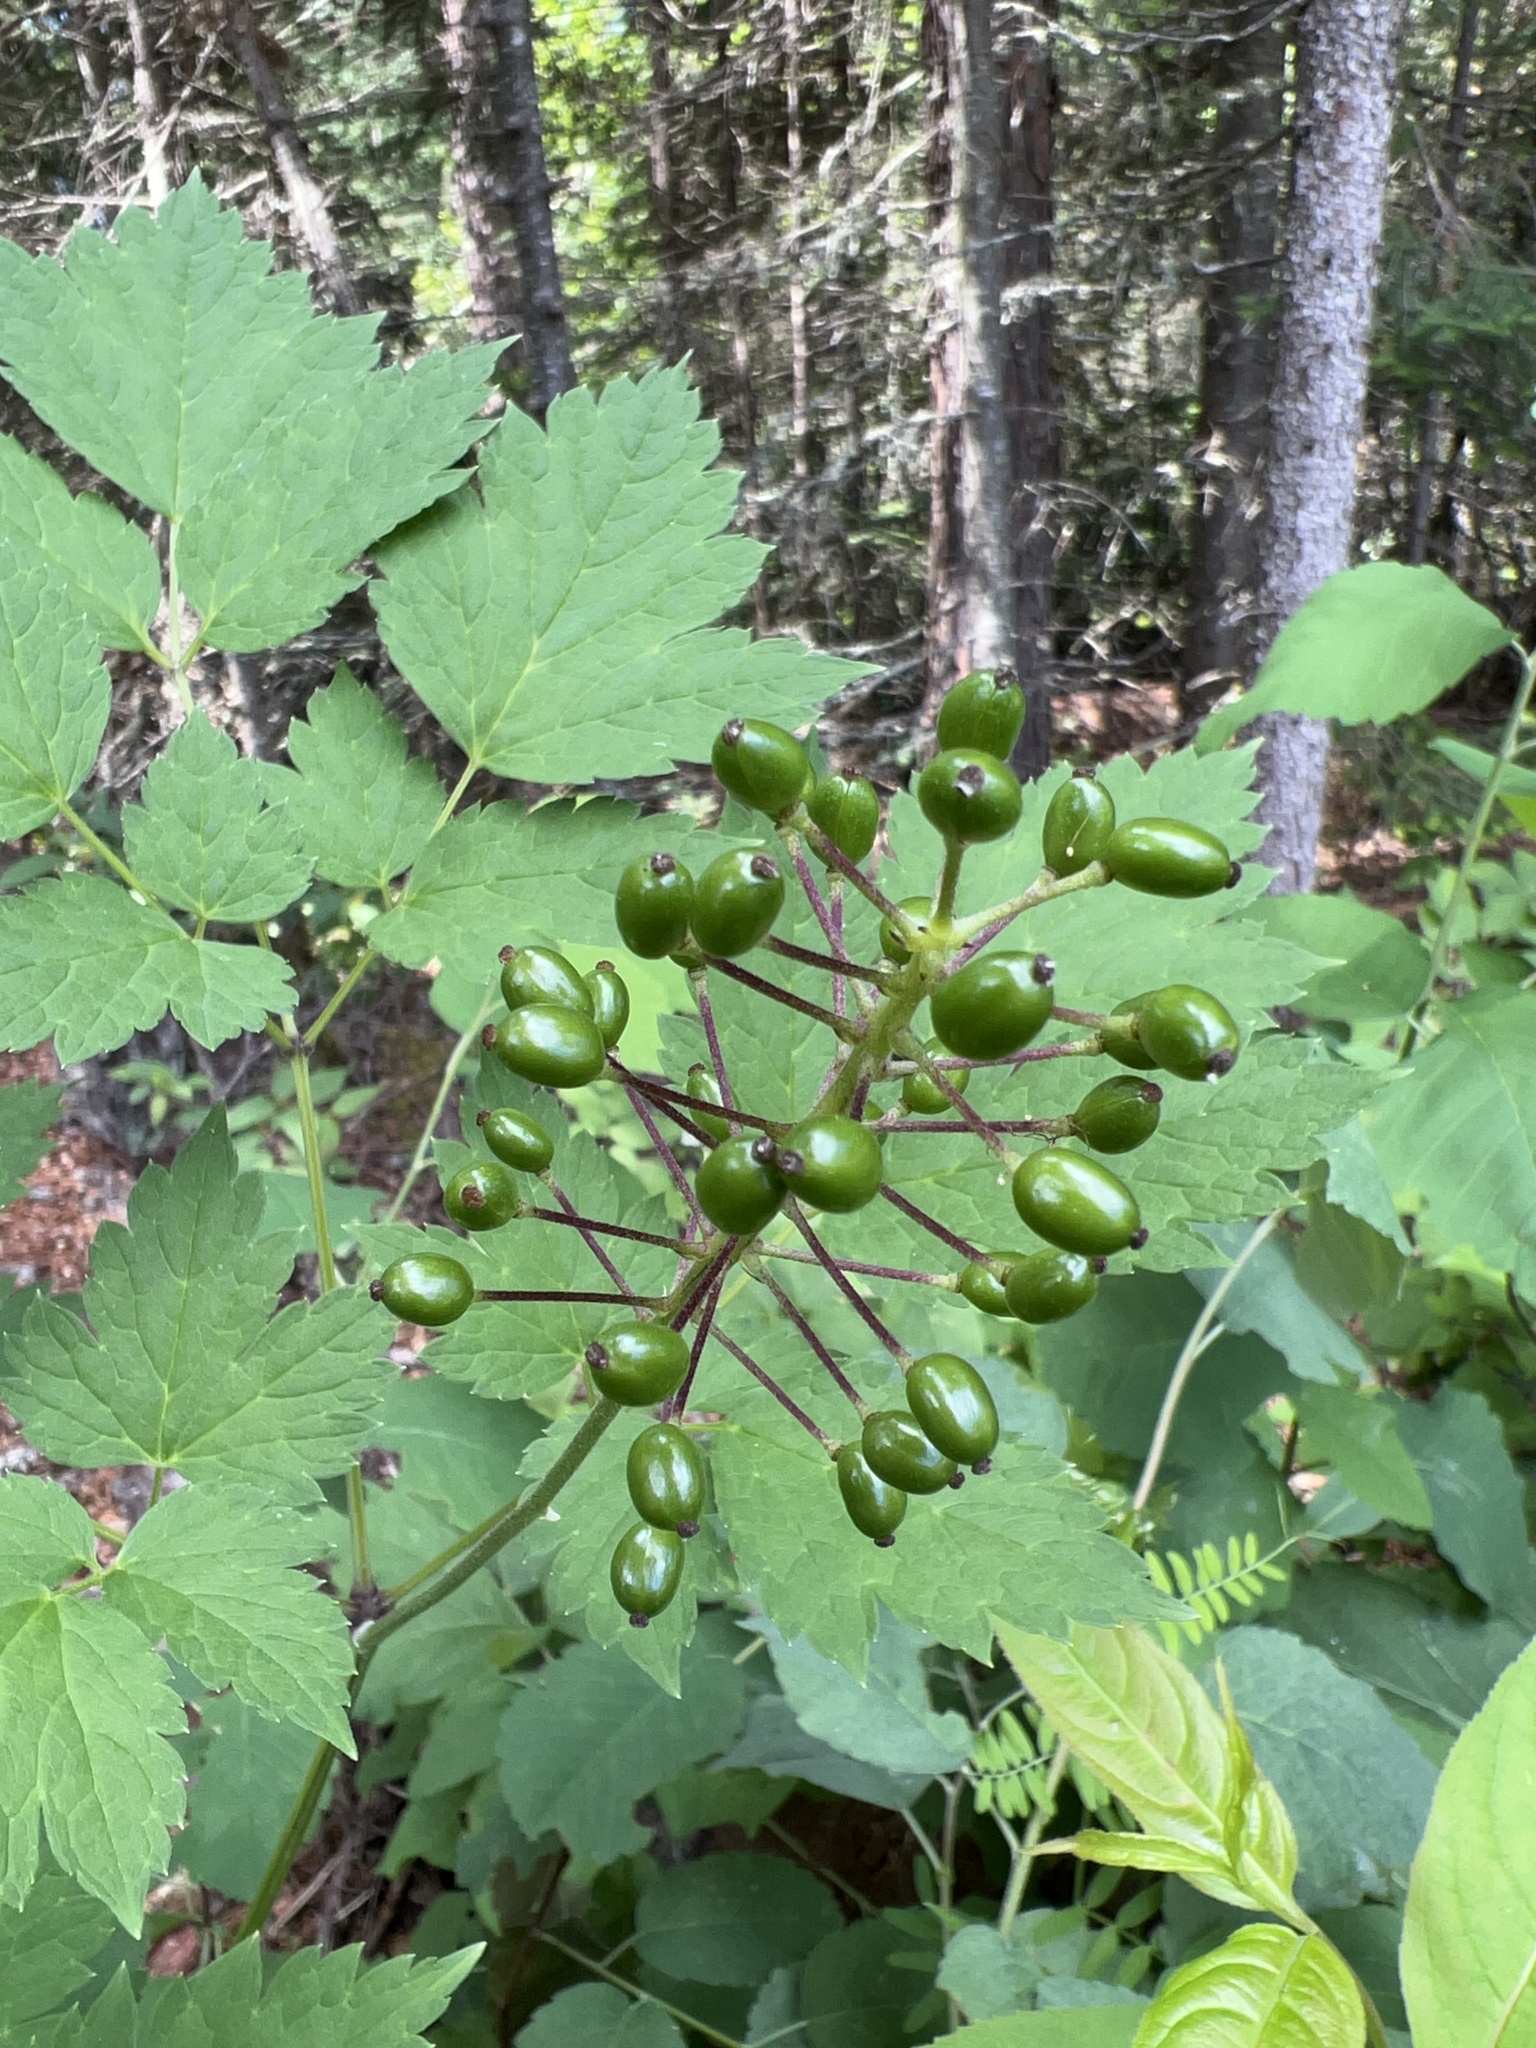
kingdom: Plantae
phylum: Tracheophyta
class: Magnoliopsida
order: Ranunculales
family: Ranunculaceae
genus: Actaea
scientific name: Actaea rubra
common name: Red baneberry
